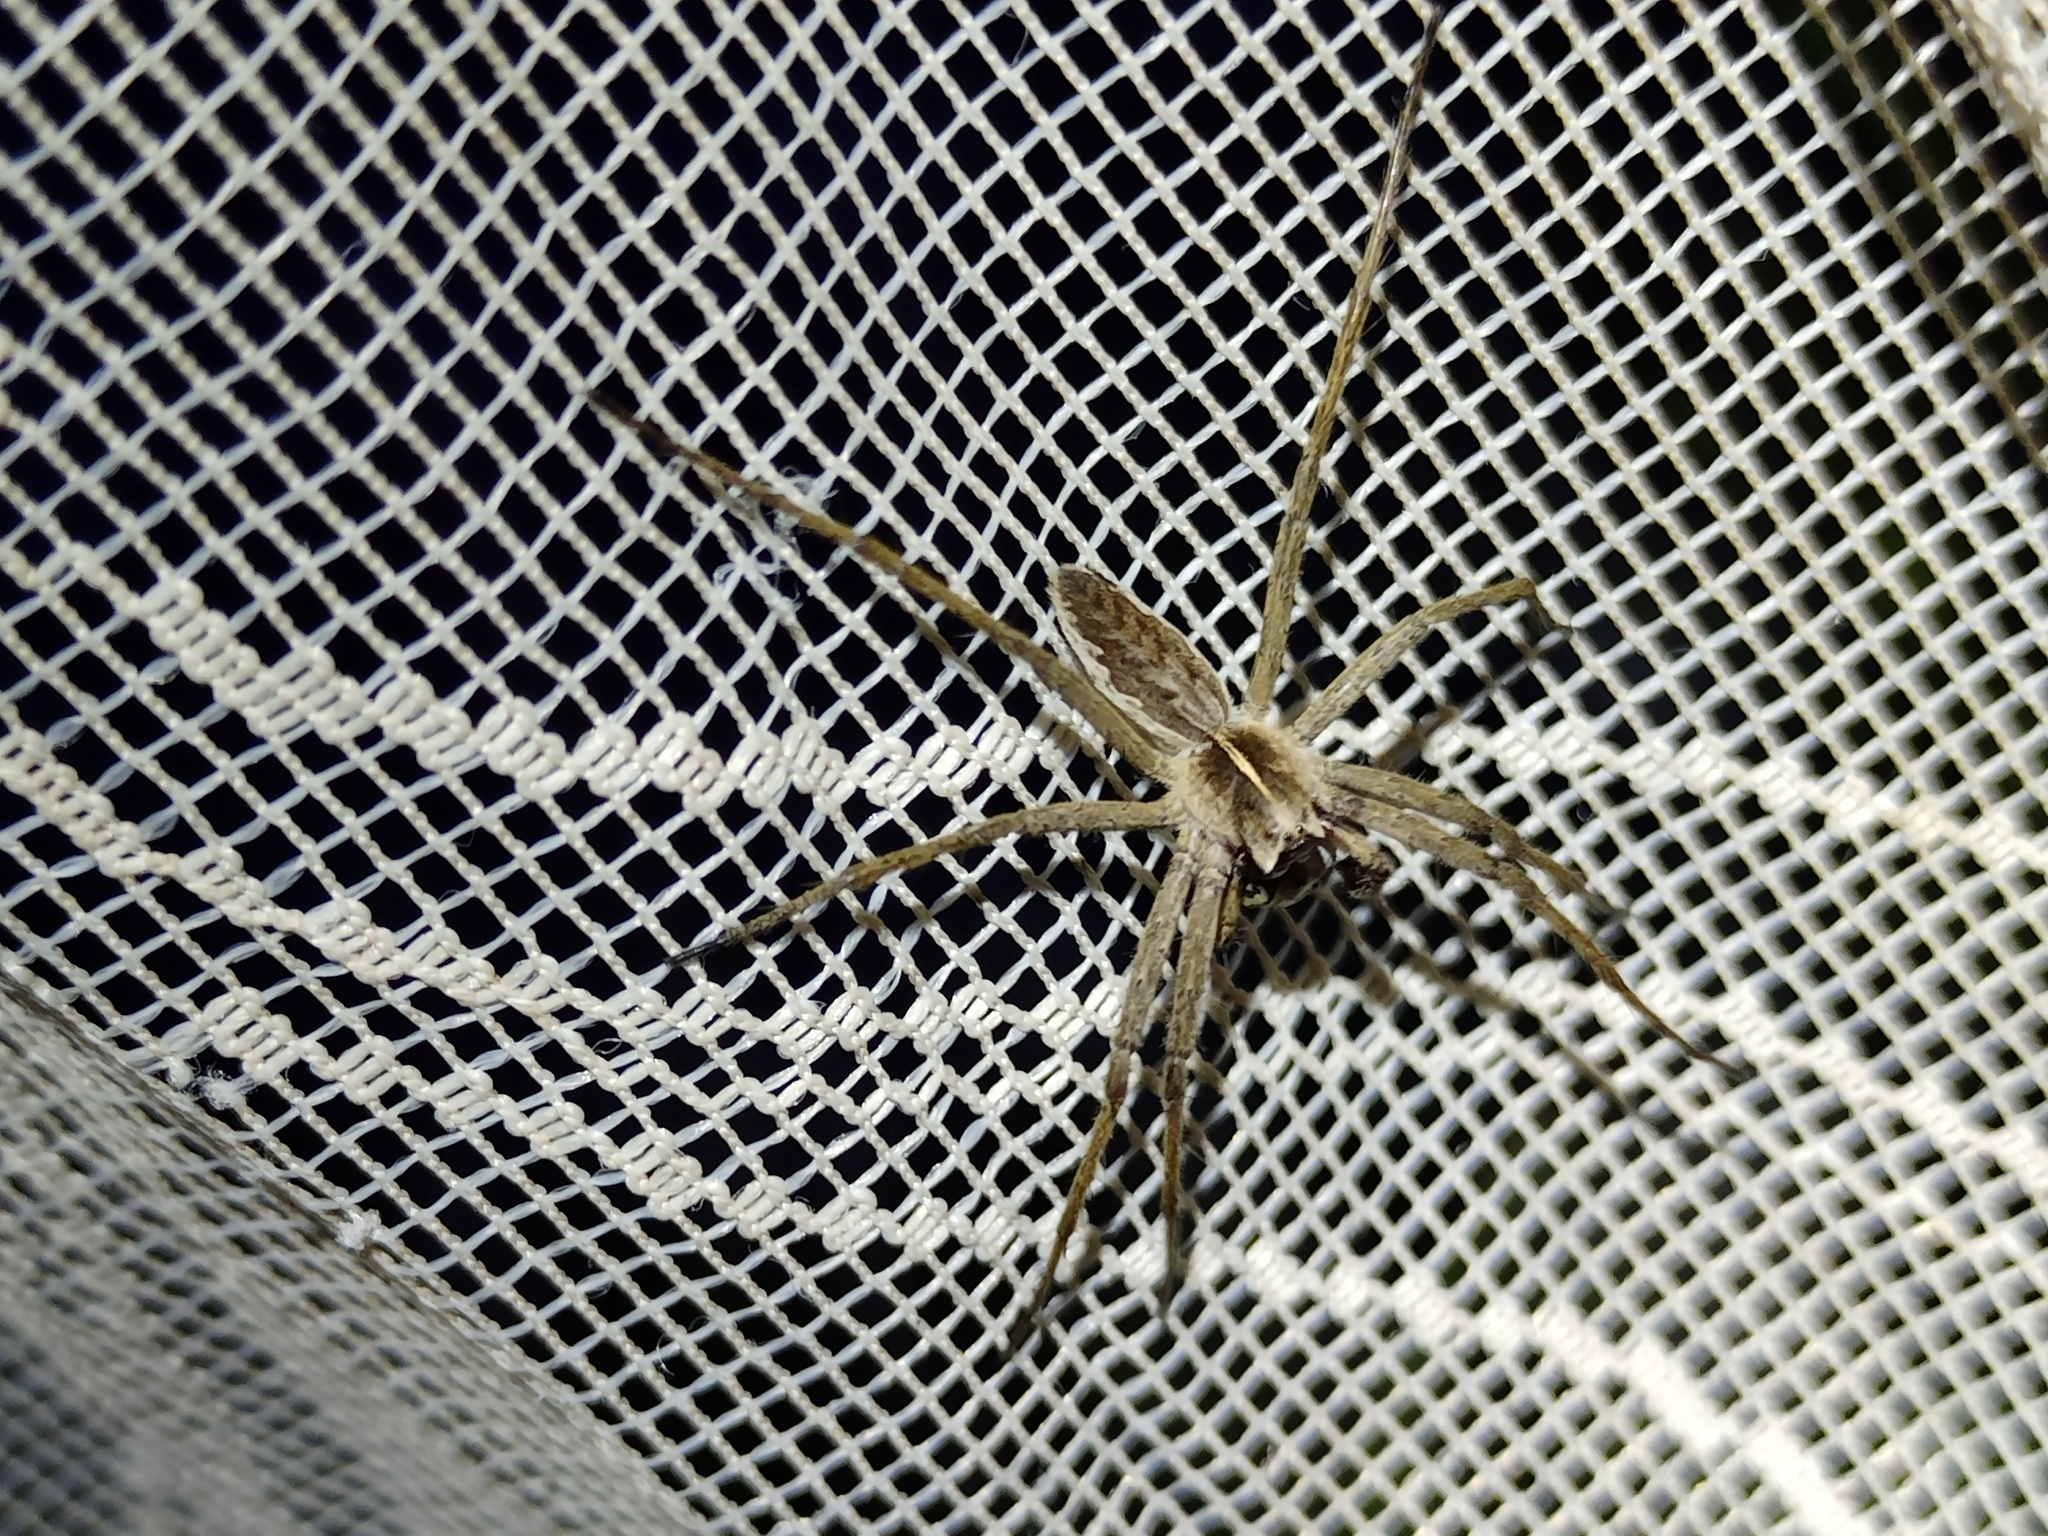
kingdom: Animalia
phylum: Arthropoda
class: Arachnida
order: Araneae
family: Pisauridae
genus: Pisaura
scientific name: Pisaura mirabilis
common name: Tent spider
